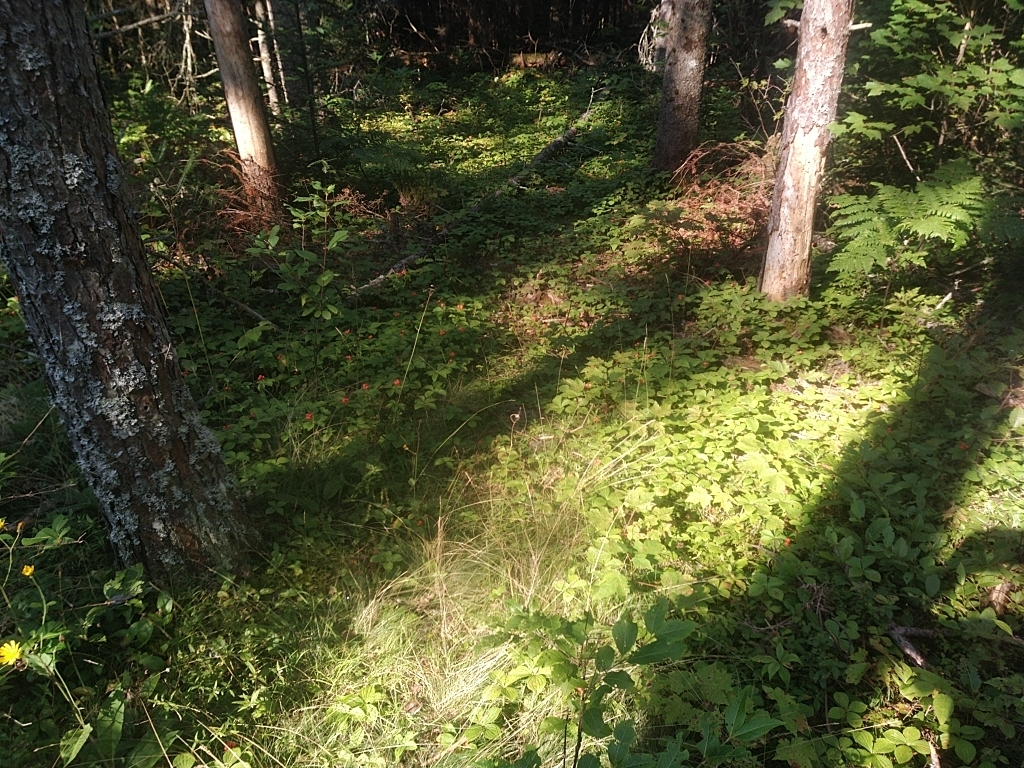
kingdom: Plantae
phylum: Tracheophyta
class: Magnoliopsida
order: Cornales
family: Cornaceae
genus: Cornus
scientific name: Cornus canadensis
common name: Creeping dogwood
